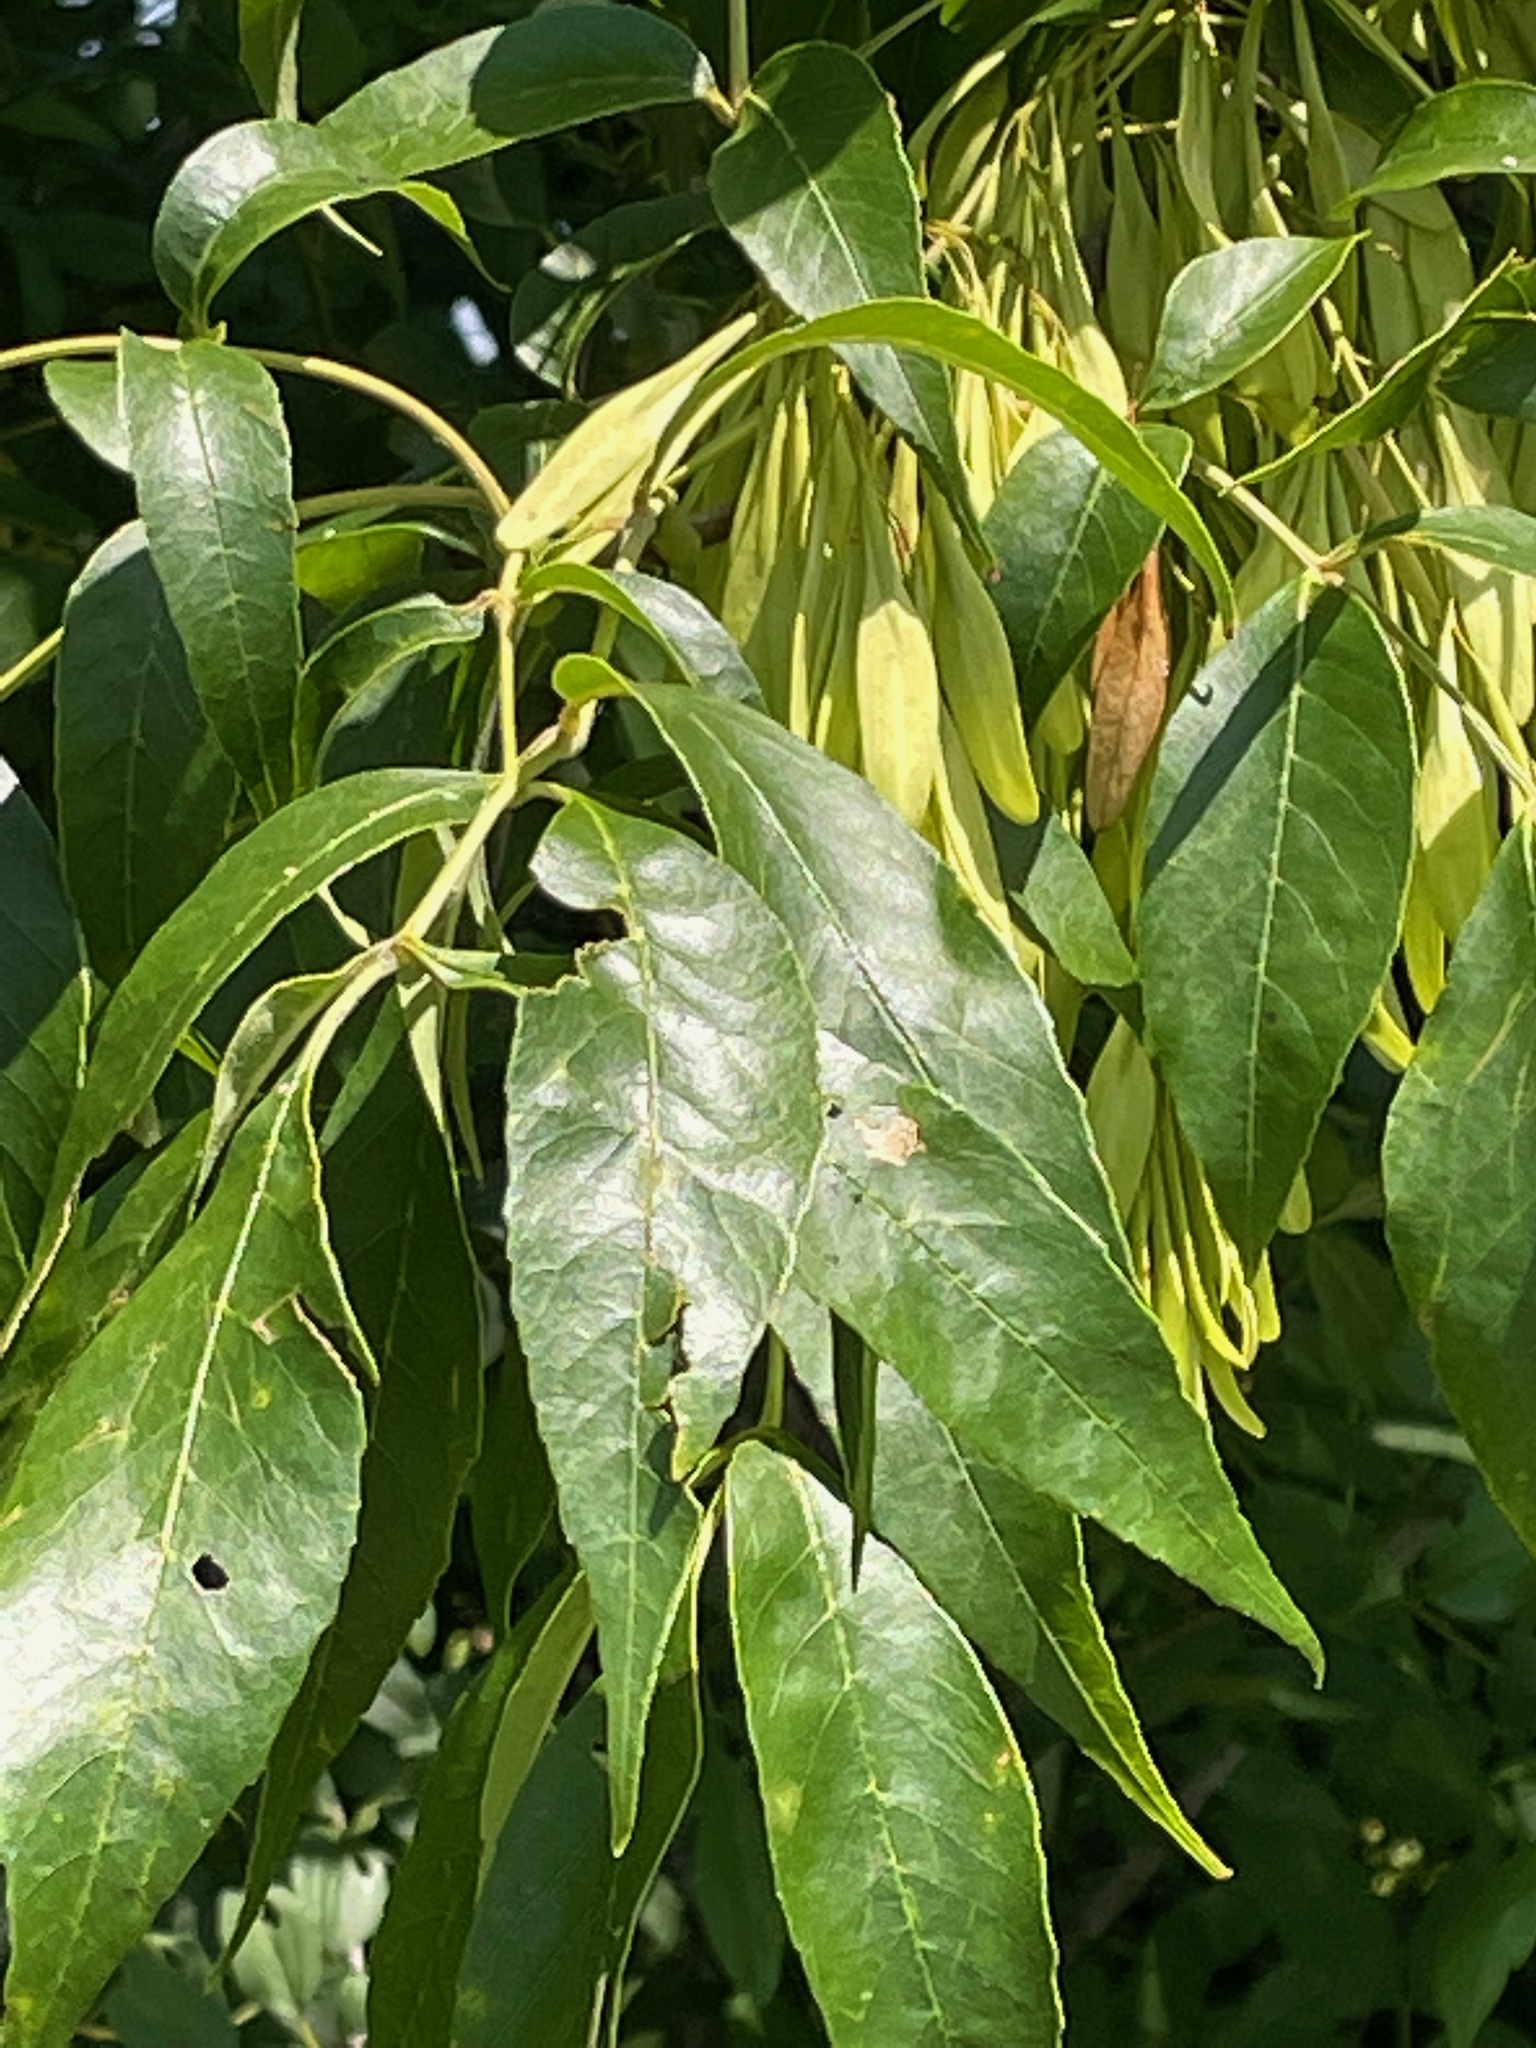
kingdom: Plantae
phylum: Tracheophyta
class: Magnoliopsida
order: Lamiales
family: Oleaceae
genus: Fraxinus
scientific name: Fraxinus pennsylvanica
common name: Green ash
